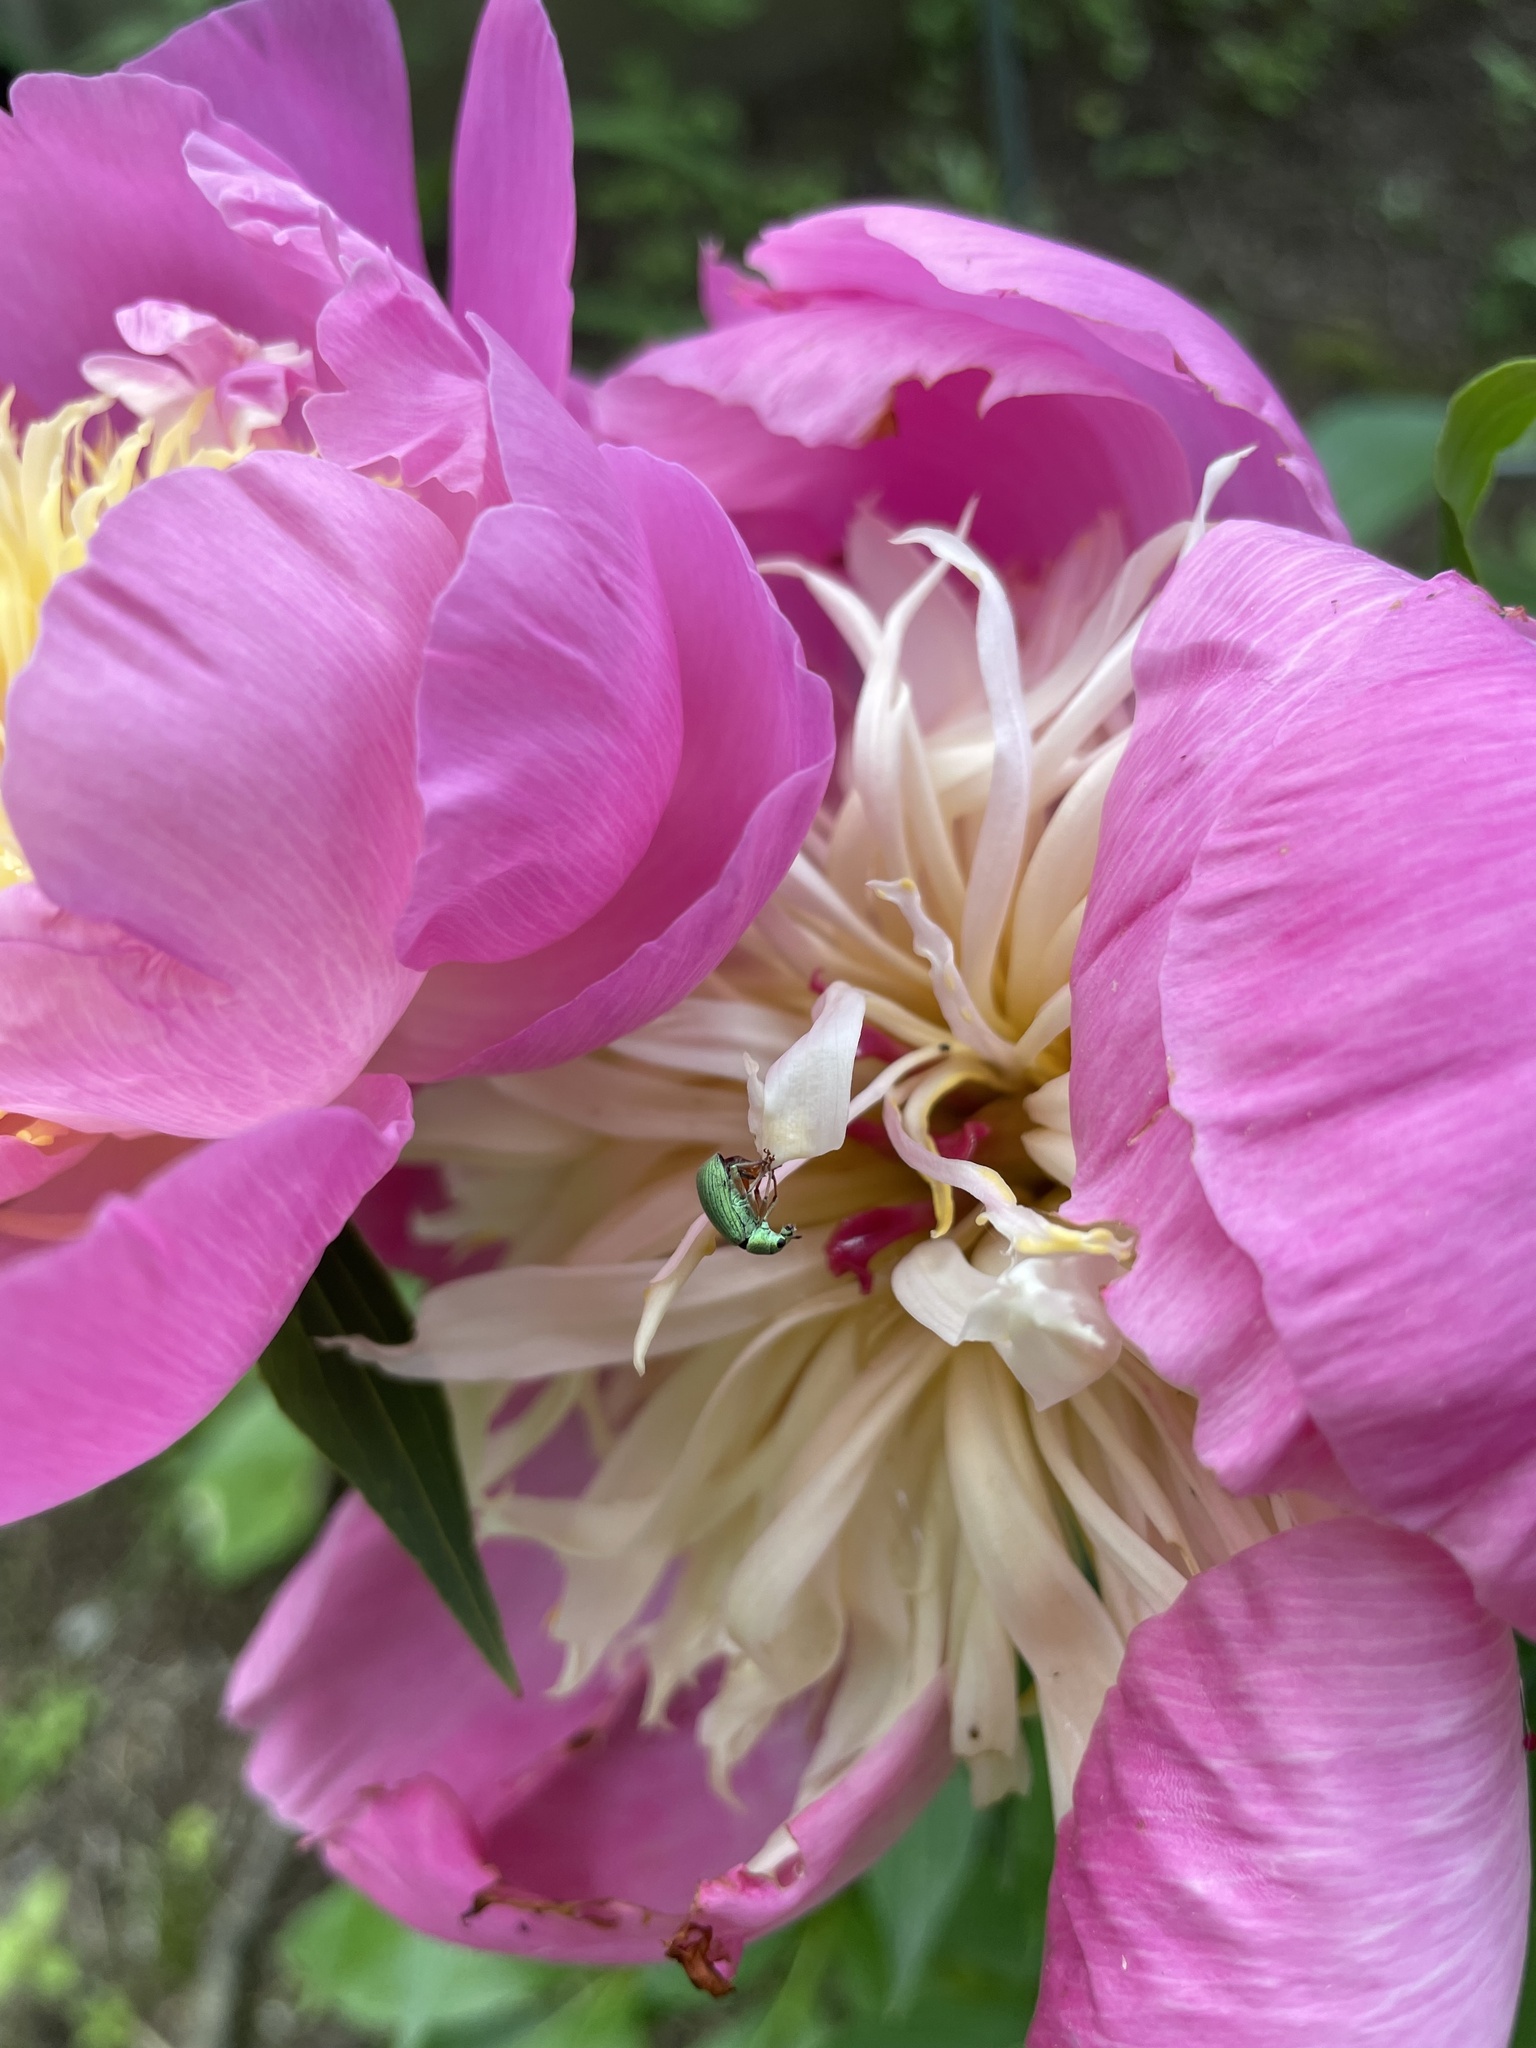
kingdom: Animalia
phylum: Arthropoda
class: Insecta
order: Coleoptera
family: Curculionidae
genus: Polydrusus
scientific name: Polydrusus formosus
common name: Weevil
